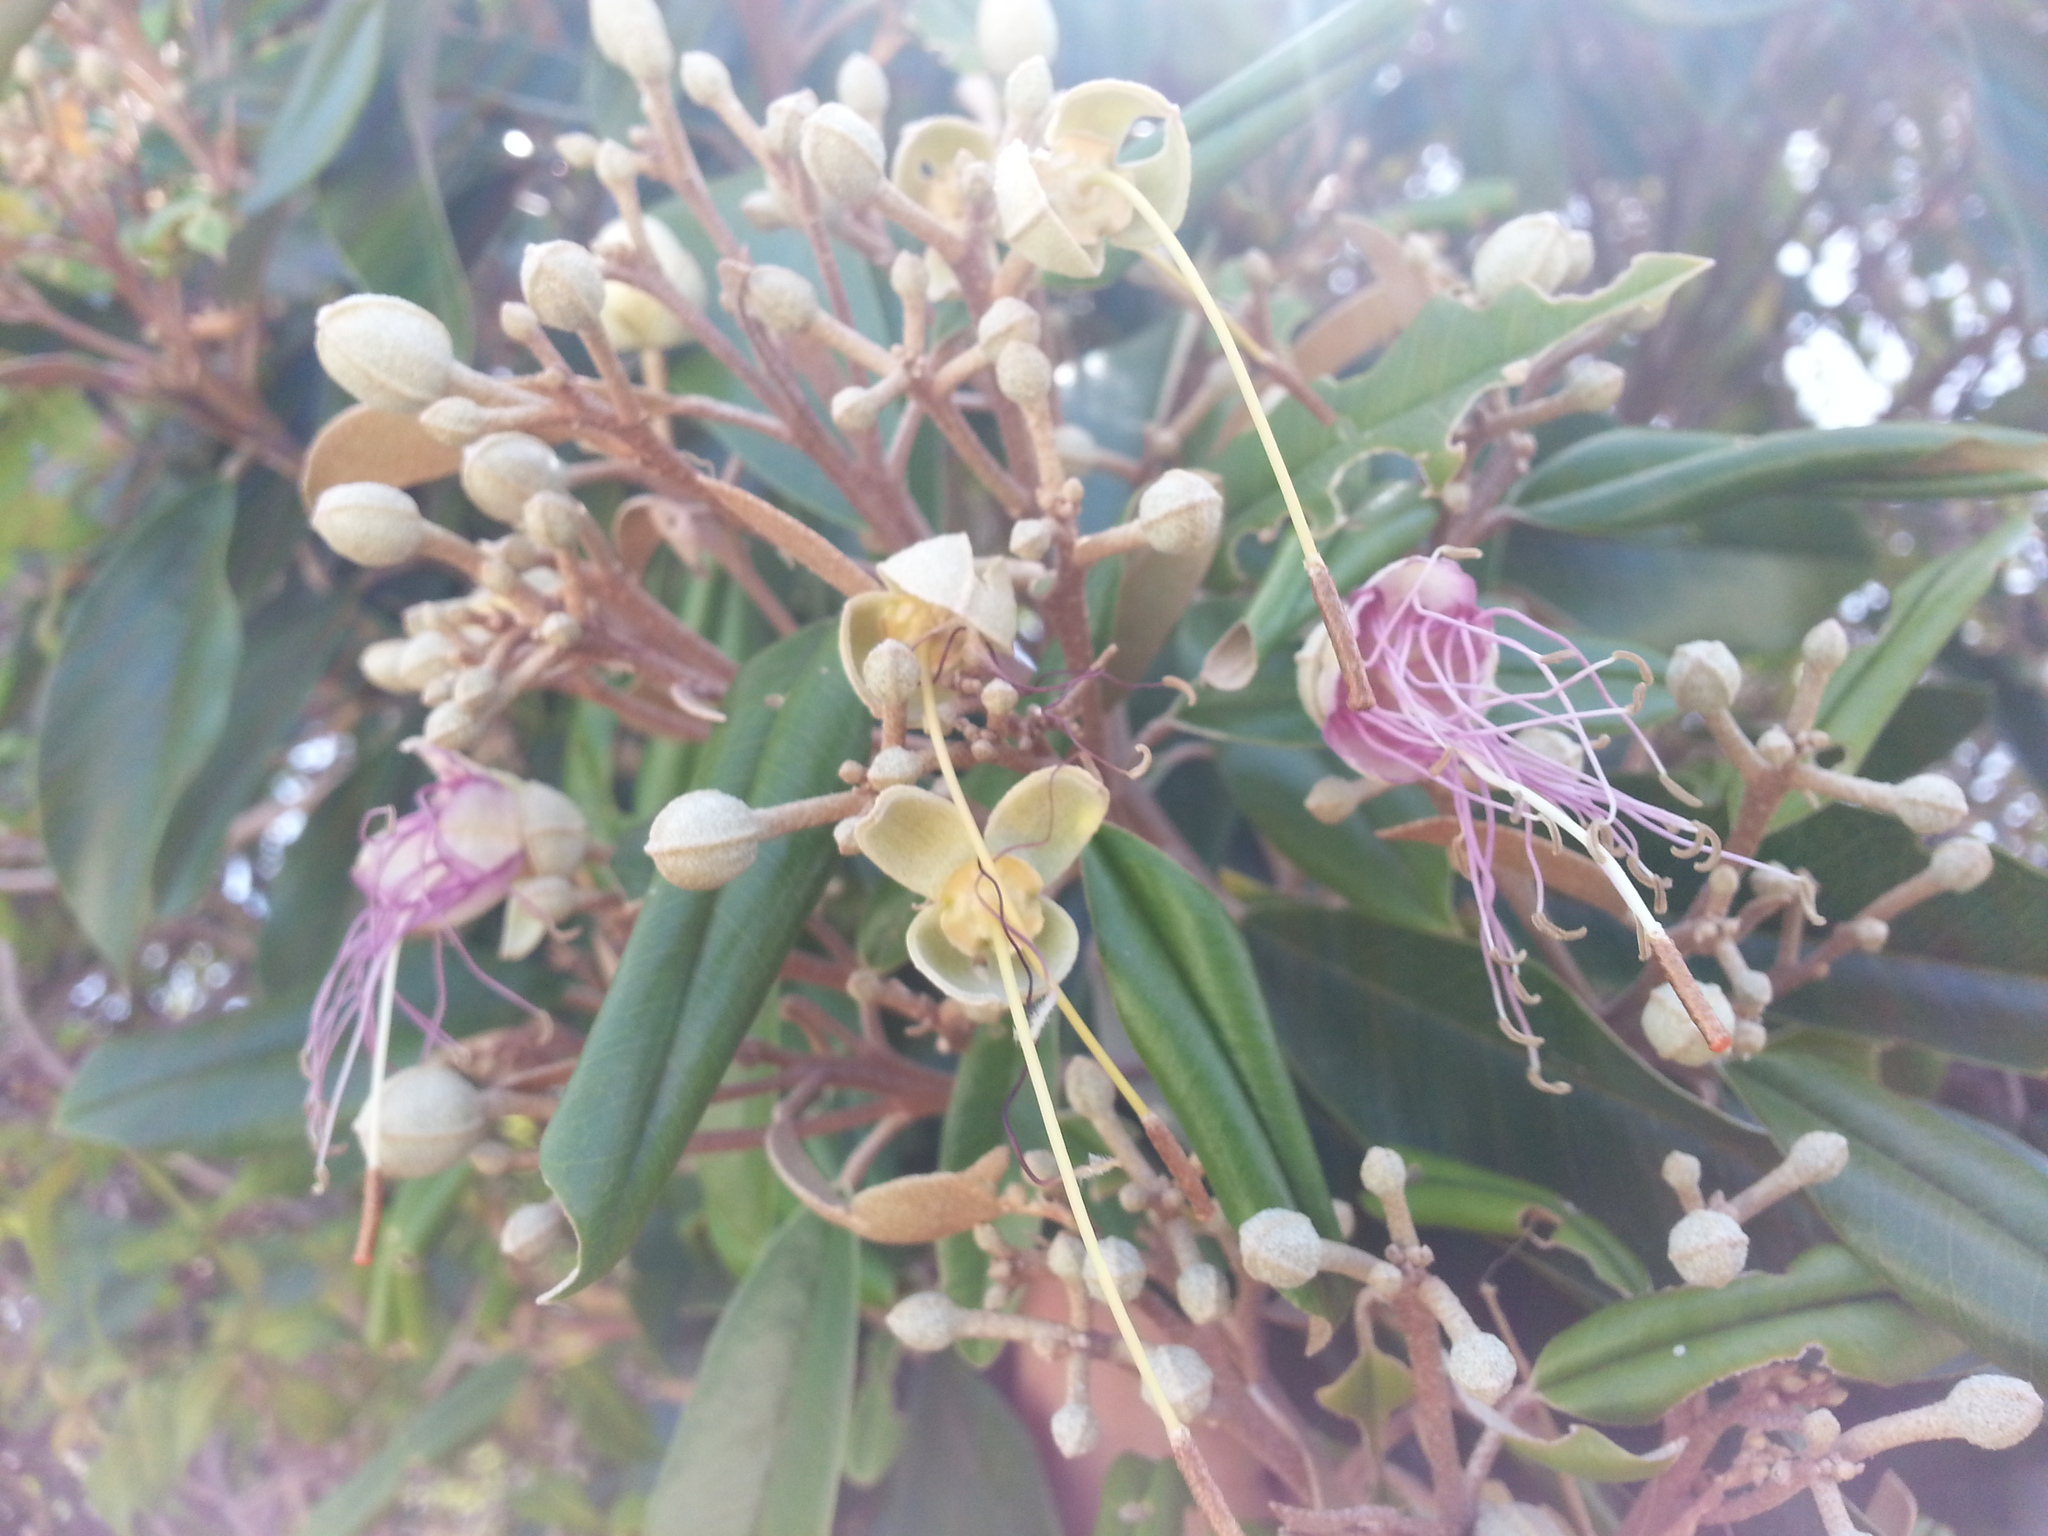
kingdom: Plantae
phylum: Tracheophyta
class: Magnoliopsida
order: Brassicales
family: Capparaceae
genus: Quadrella
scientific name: Quadrella cynophallophora
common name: Black willow
